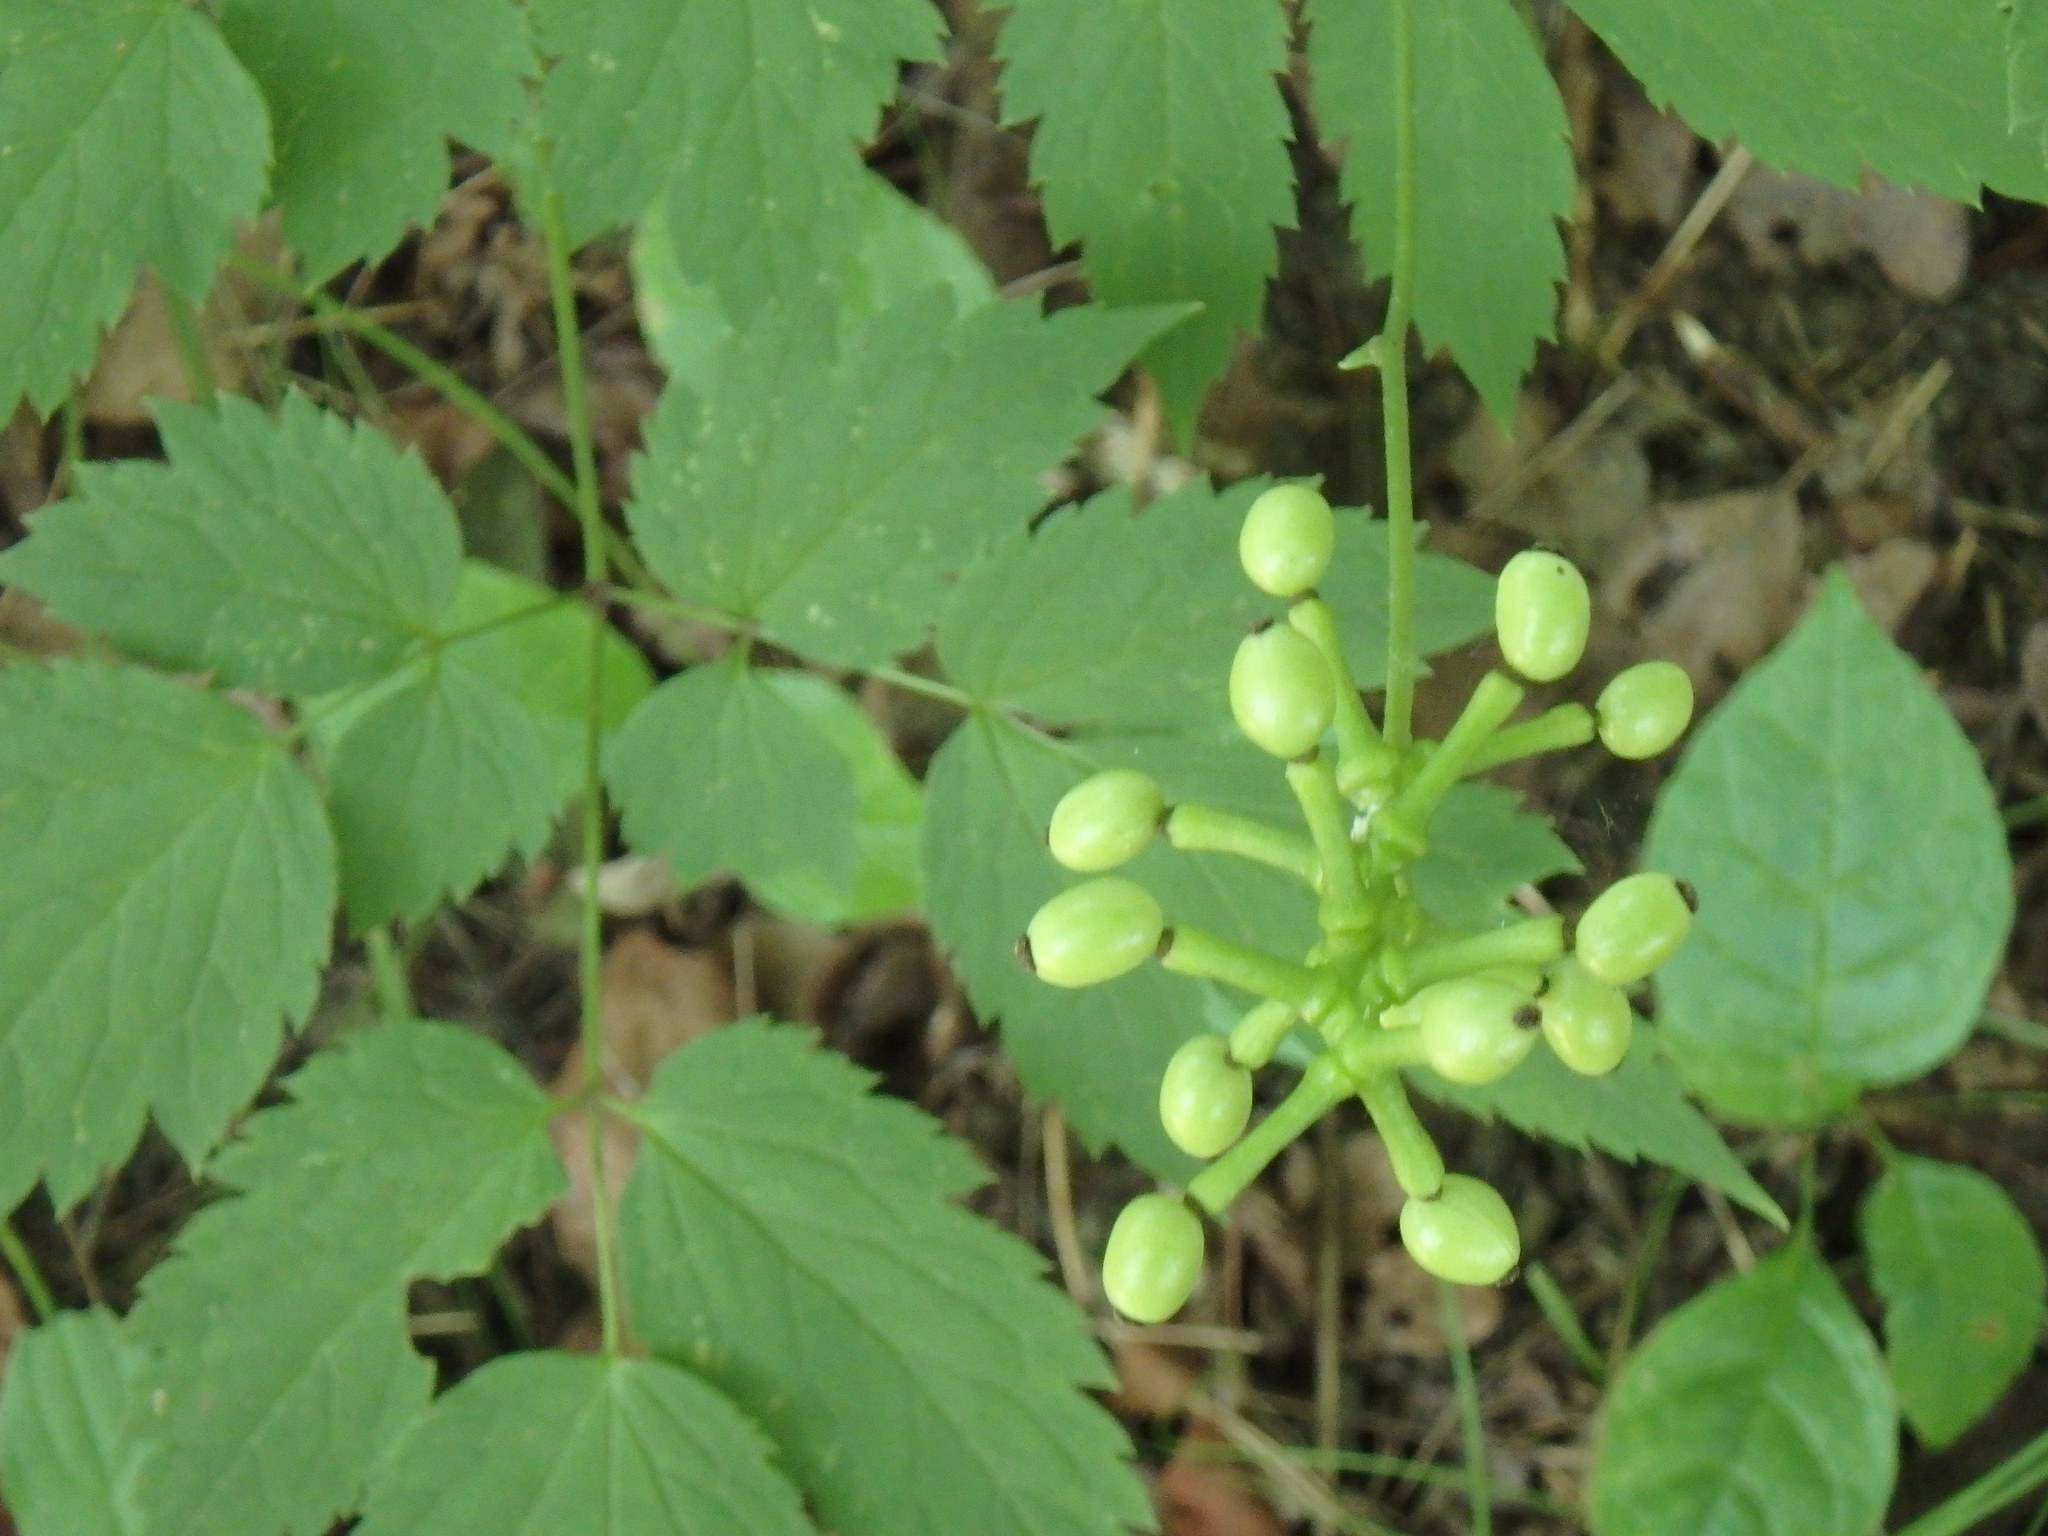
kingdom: Plantae
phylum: Tracheophyta
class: Magnoliopsida
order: Ranunculales
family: Ranunculaceae
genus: Actaea
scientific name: Actaea pachypoda
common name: Doll's-eyes
